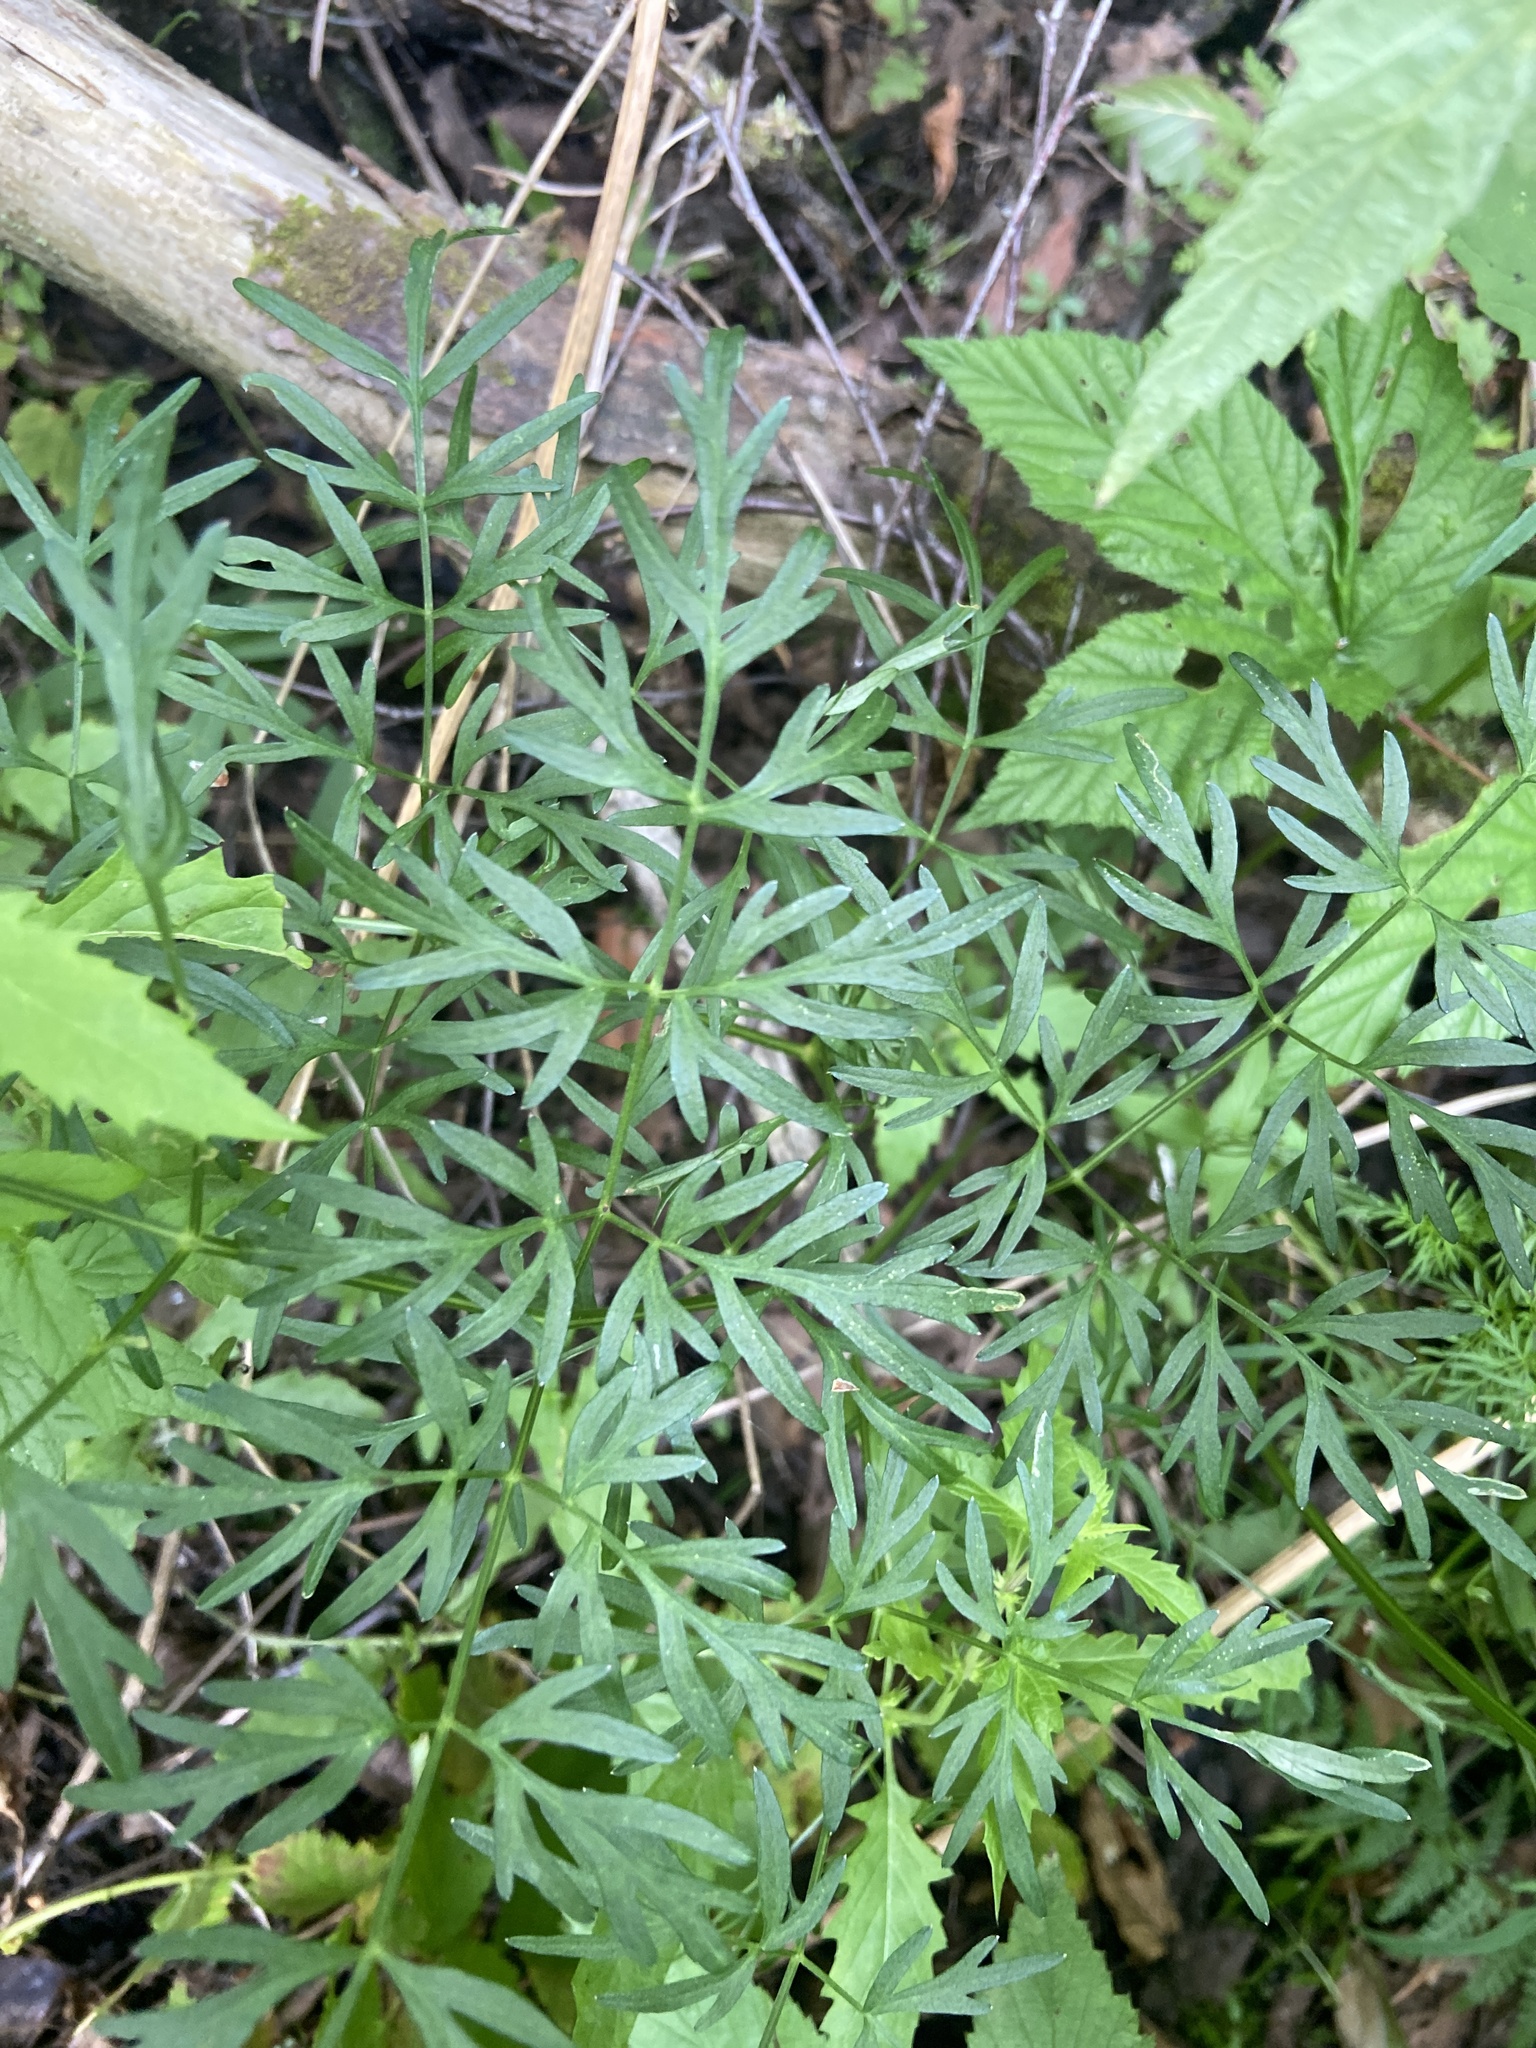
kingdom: Plantae
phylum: Tracheophyta
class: Magnoliopsida
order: Apiales
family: Apiaceae
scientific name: Apiaceae
